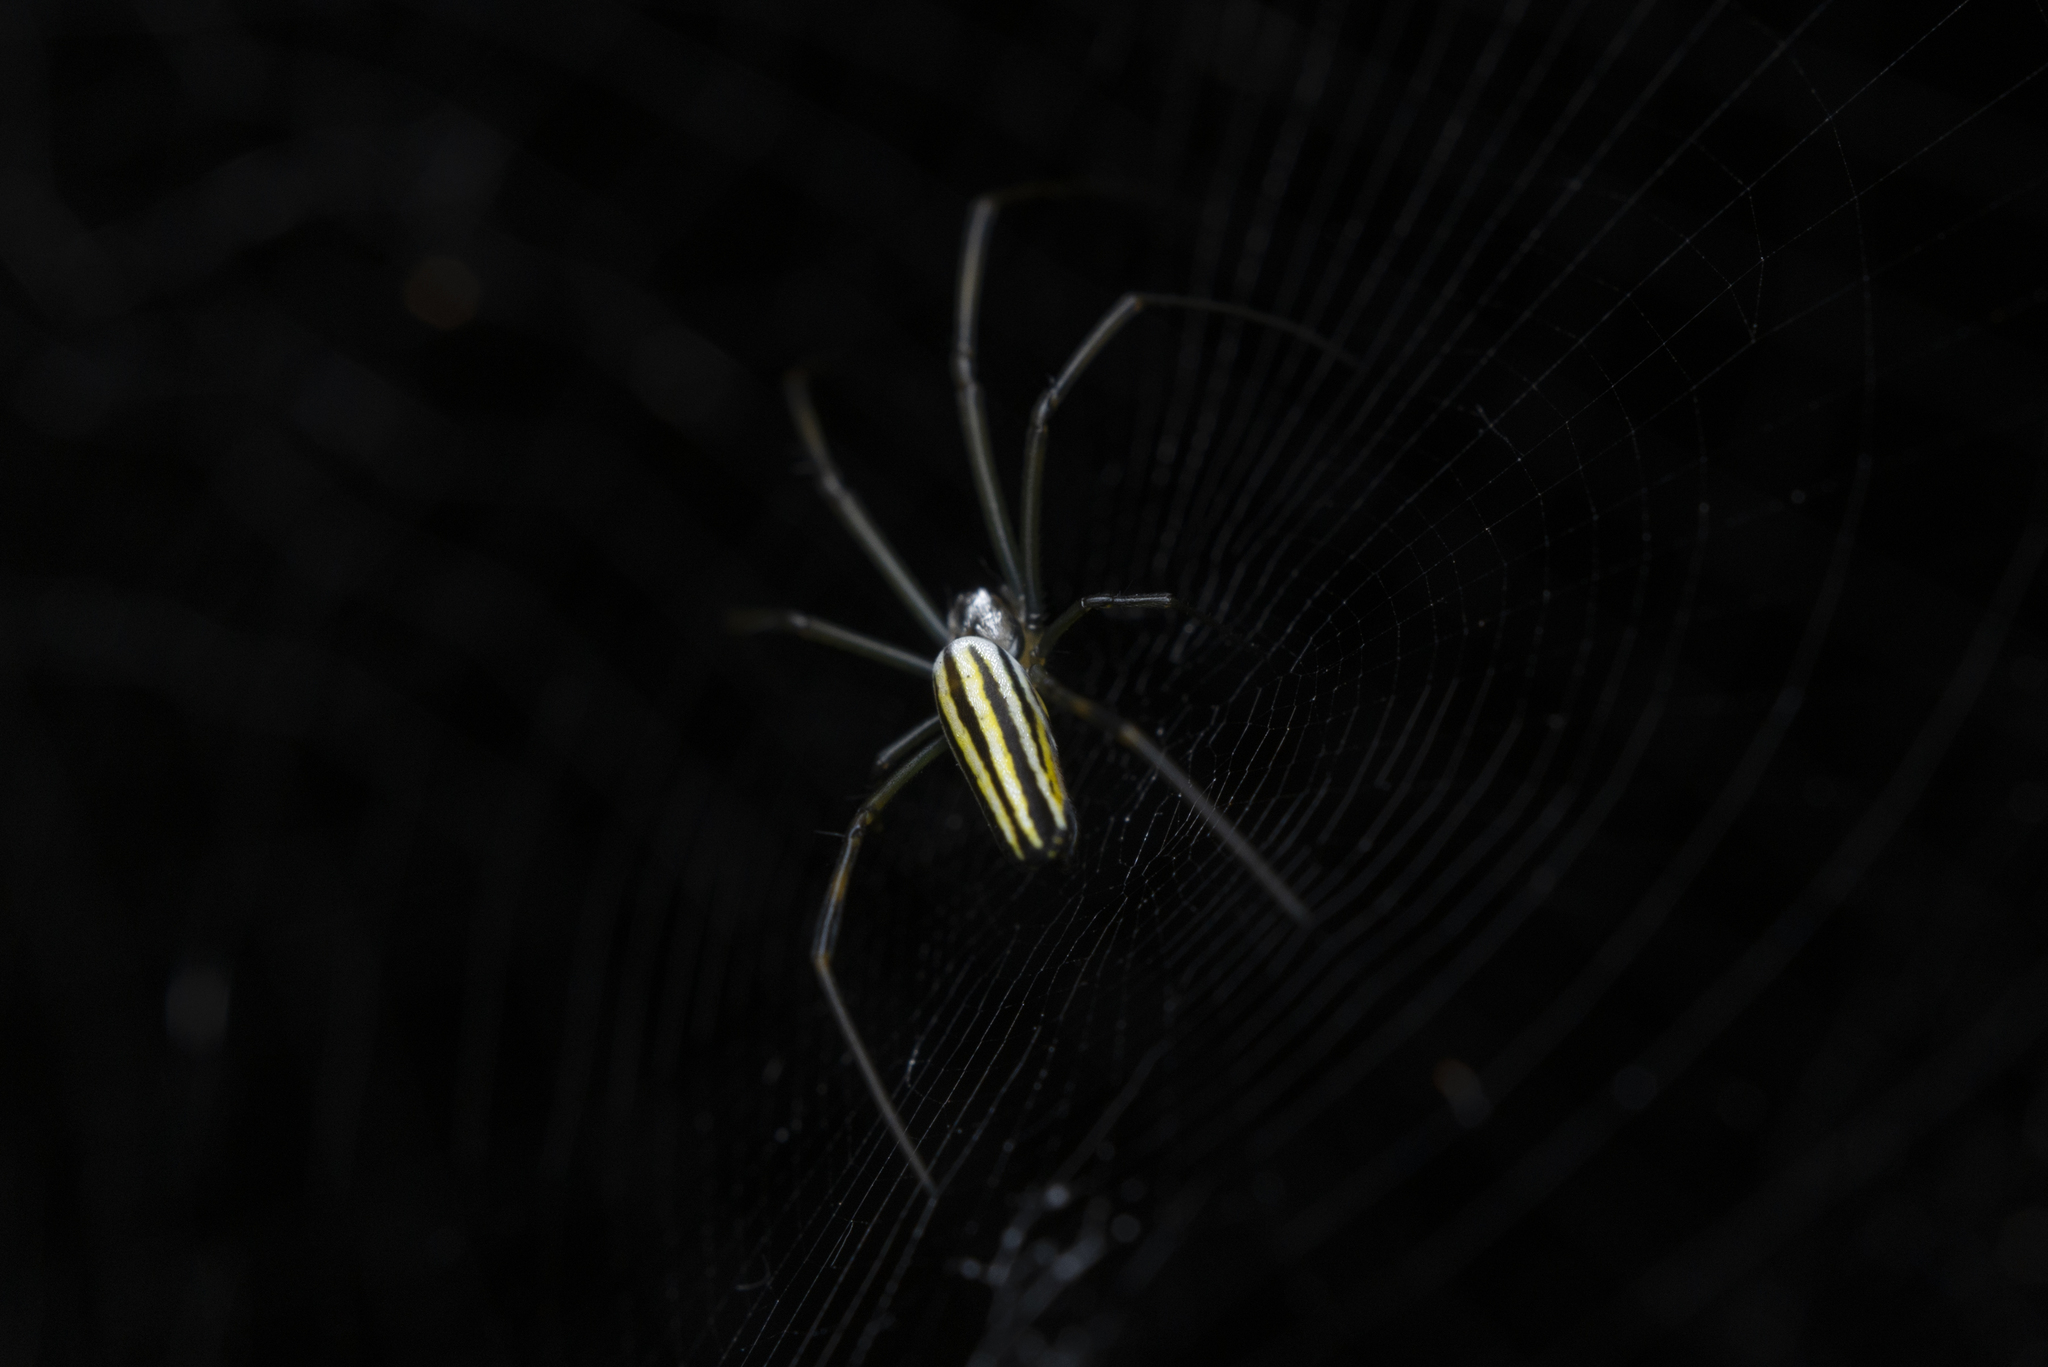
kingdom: Animalia
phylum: Arthropoda
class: Arachnida
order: Araneae
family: Araneidae
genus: Nephila
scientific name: Nephila pilipes
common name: Giant golden orb weaver
